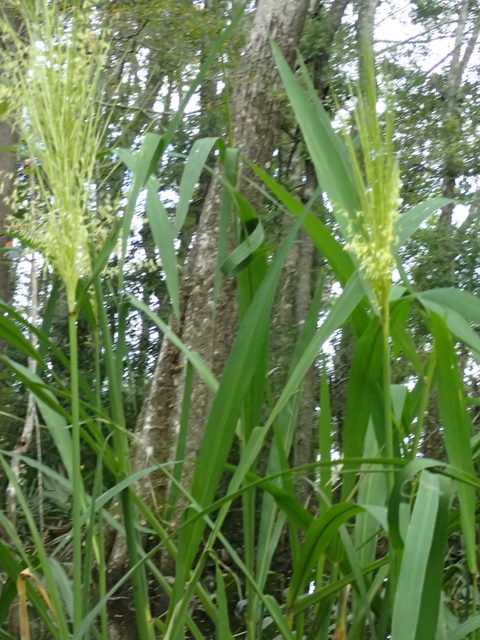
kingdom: Plantae
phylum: Tracheophyta
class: Liliopsida
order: Poales
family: Poaceae
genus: Zizania
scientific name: Zizania aquatica
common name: Annual wildrice
